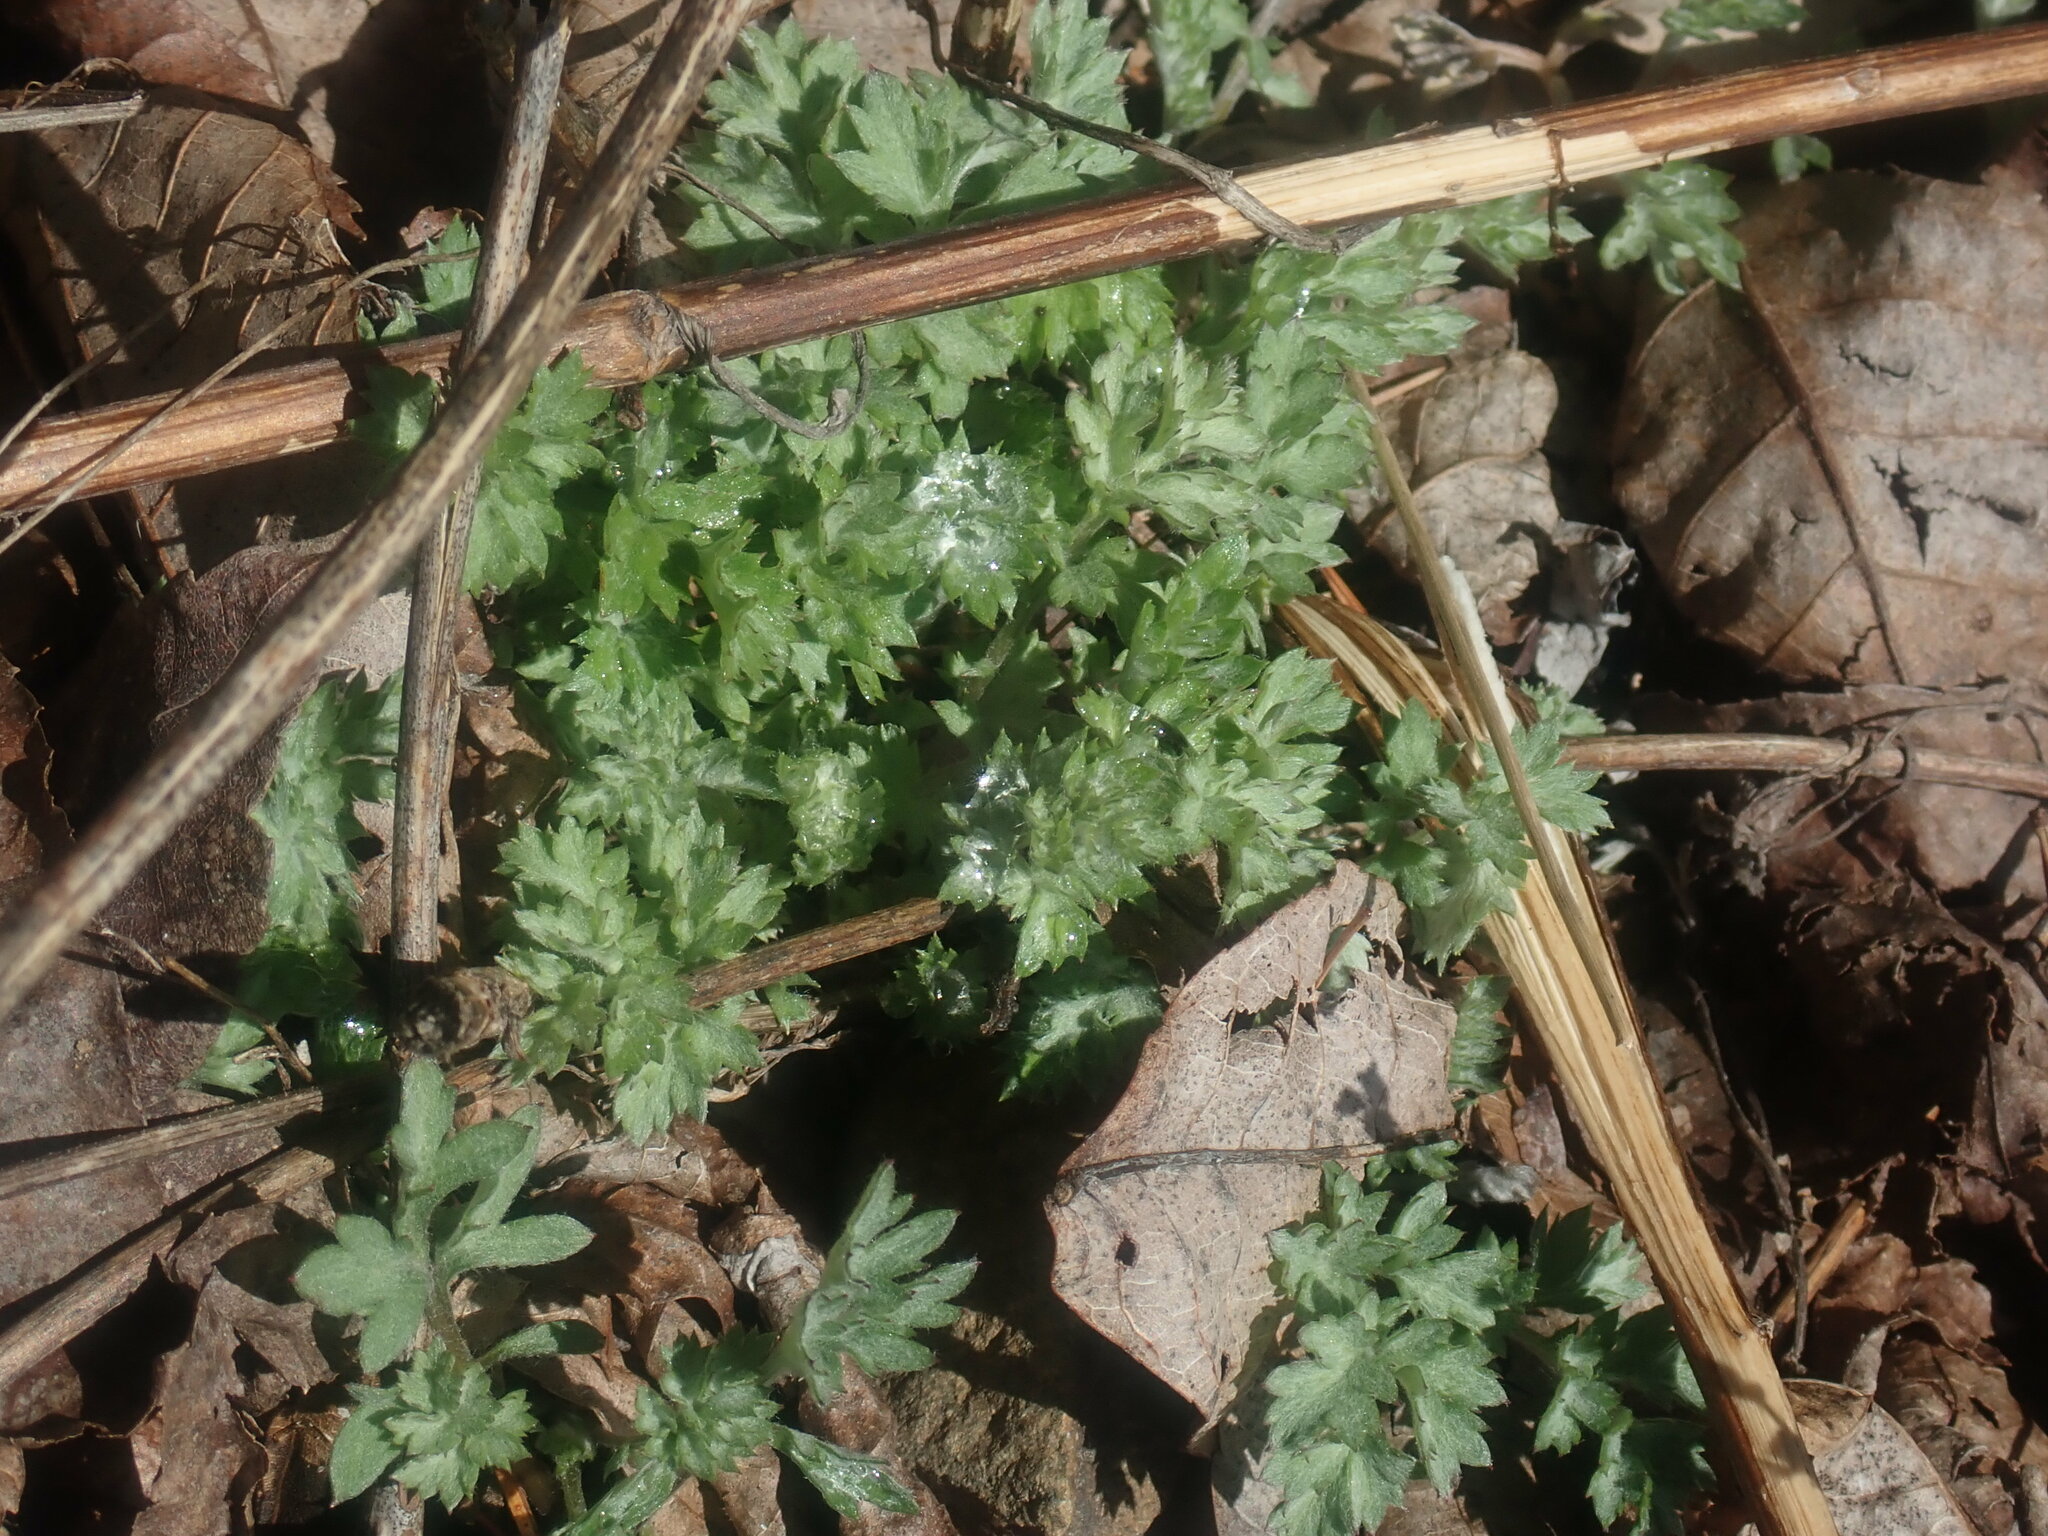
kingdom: Plantae
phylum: Tracheophyta
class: Magnoliopsida
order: Asterales
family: Asteraceae
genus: Artemisia
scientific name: Artemisia vulgaris
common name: Mugwort
